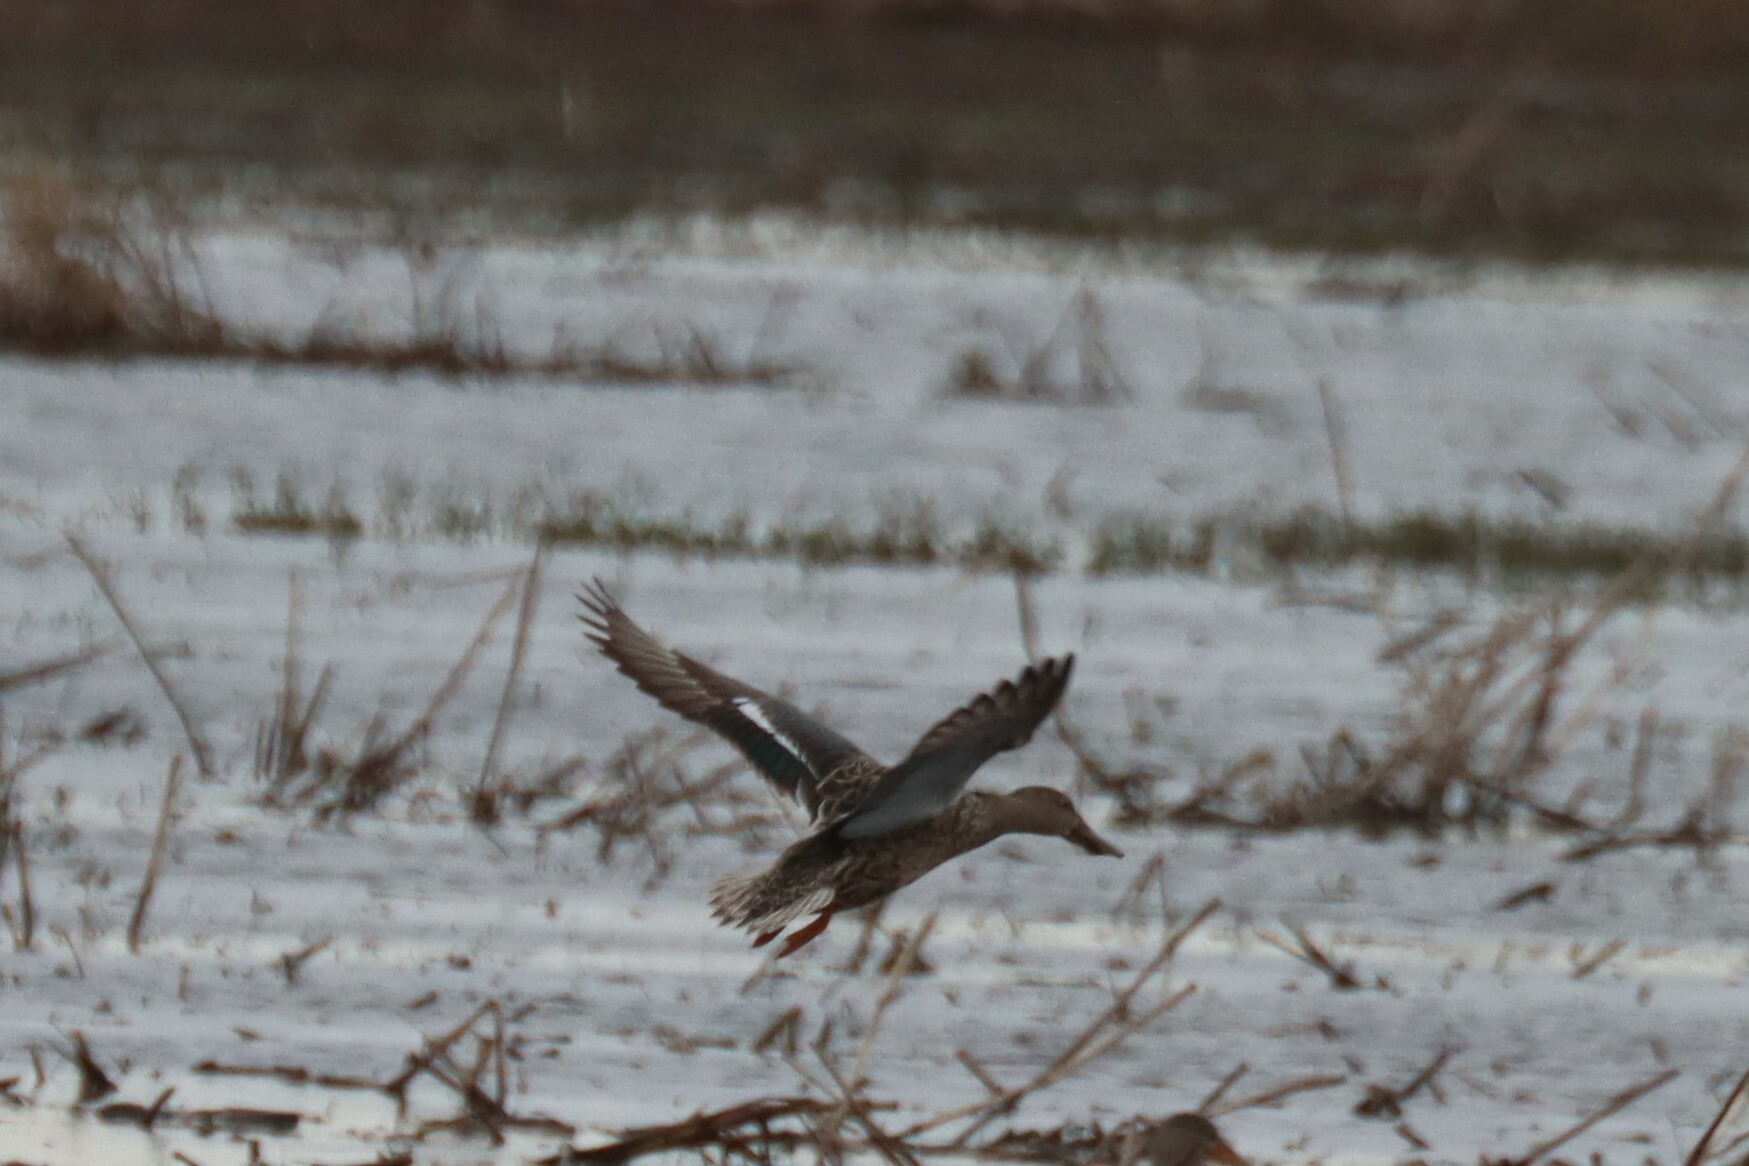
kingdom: Animalia
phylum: Chordata
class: Aves
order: Anseriformes
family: Anatidae
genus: Spatula
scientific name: Spatula clypeata
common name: Northern shoveler
